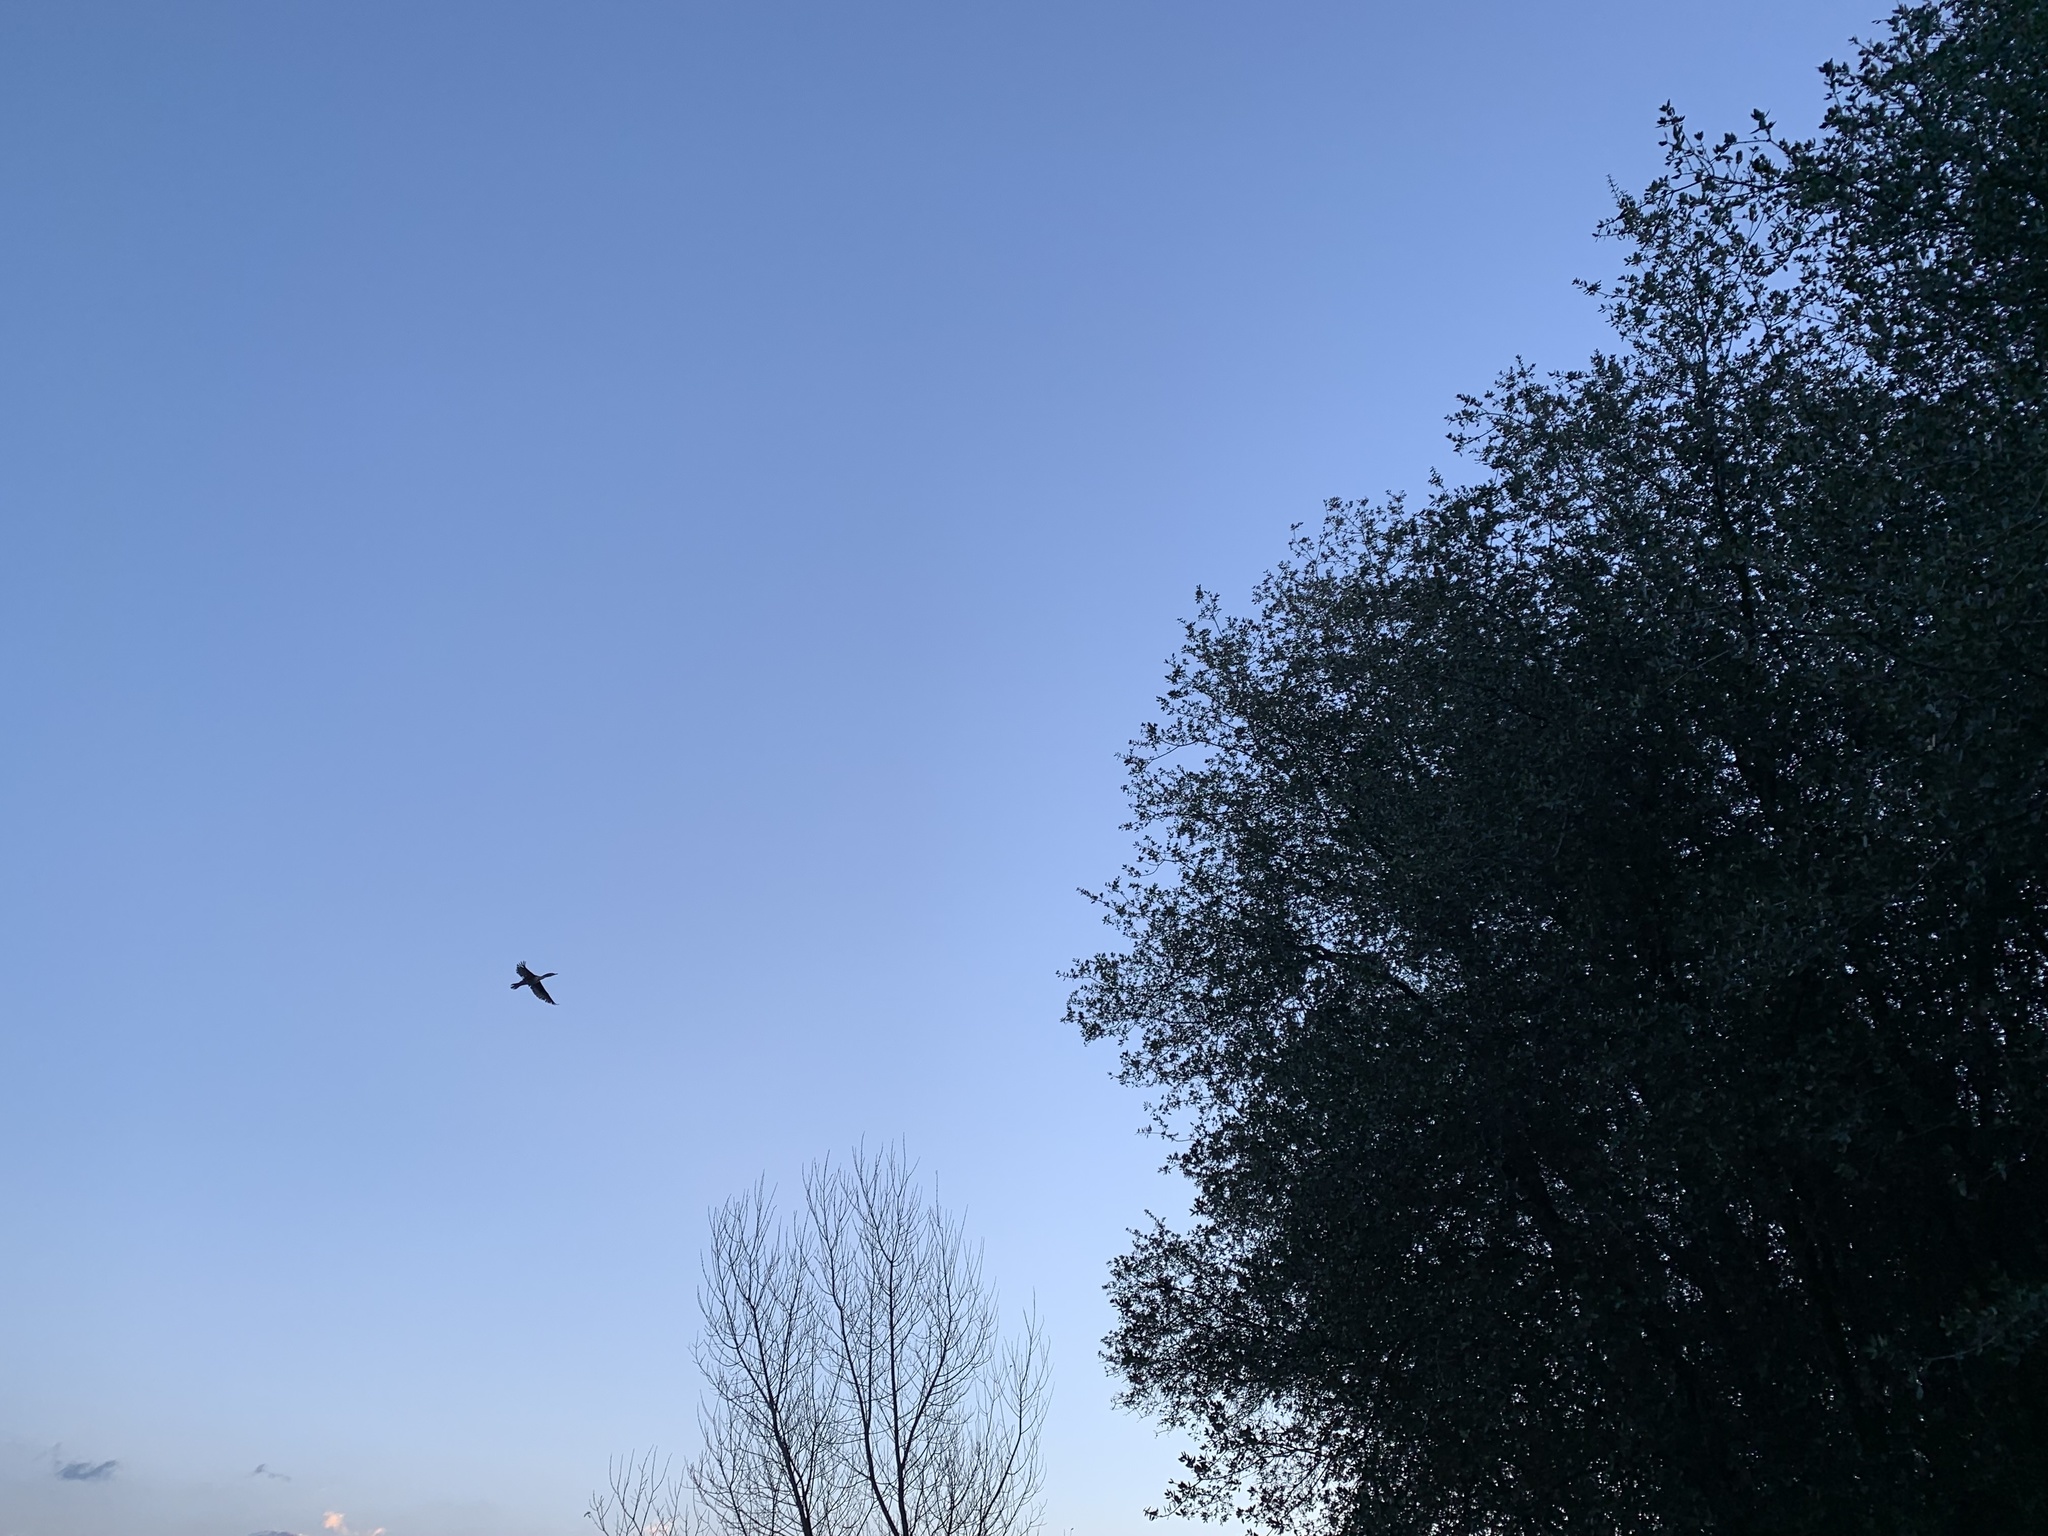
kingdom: Animalia
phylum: Chordata
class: Aves
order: Suliformes
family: Phalacrocoracidae
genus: Phalacrocorax
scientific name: Phalacrocorax auritus
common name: Double-crested cormorant
